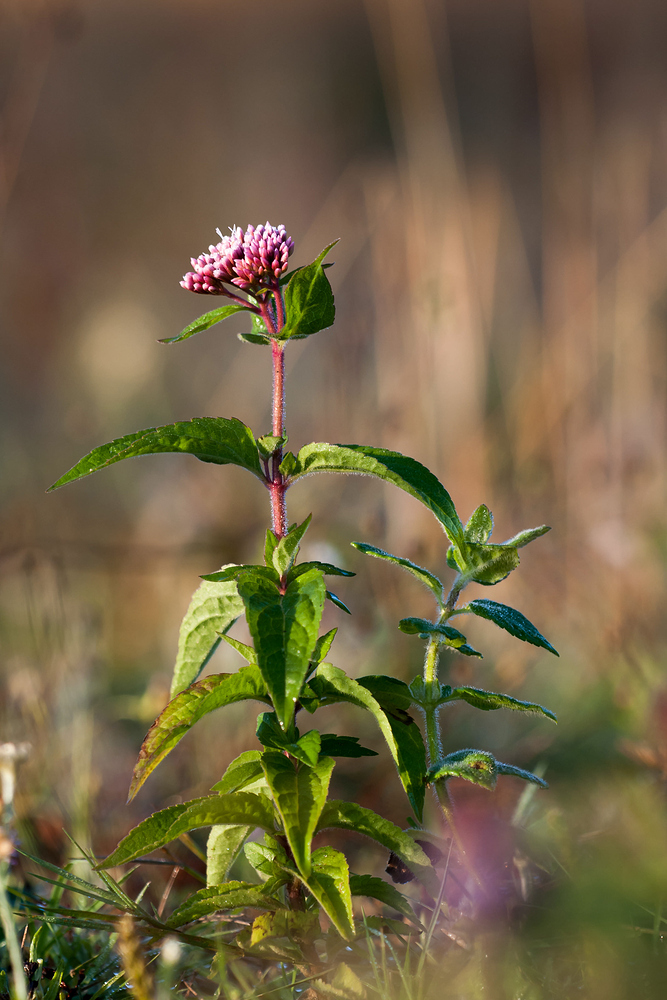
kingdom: Plantae
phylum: Tracheophyta
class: Magnoliopsida
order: Asterales
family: Asteraceae
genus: Eupatorium
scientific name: Eupatorium cannabinum
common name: Hemp-agrimony
